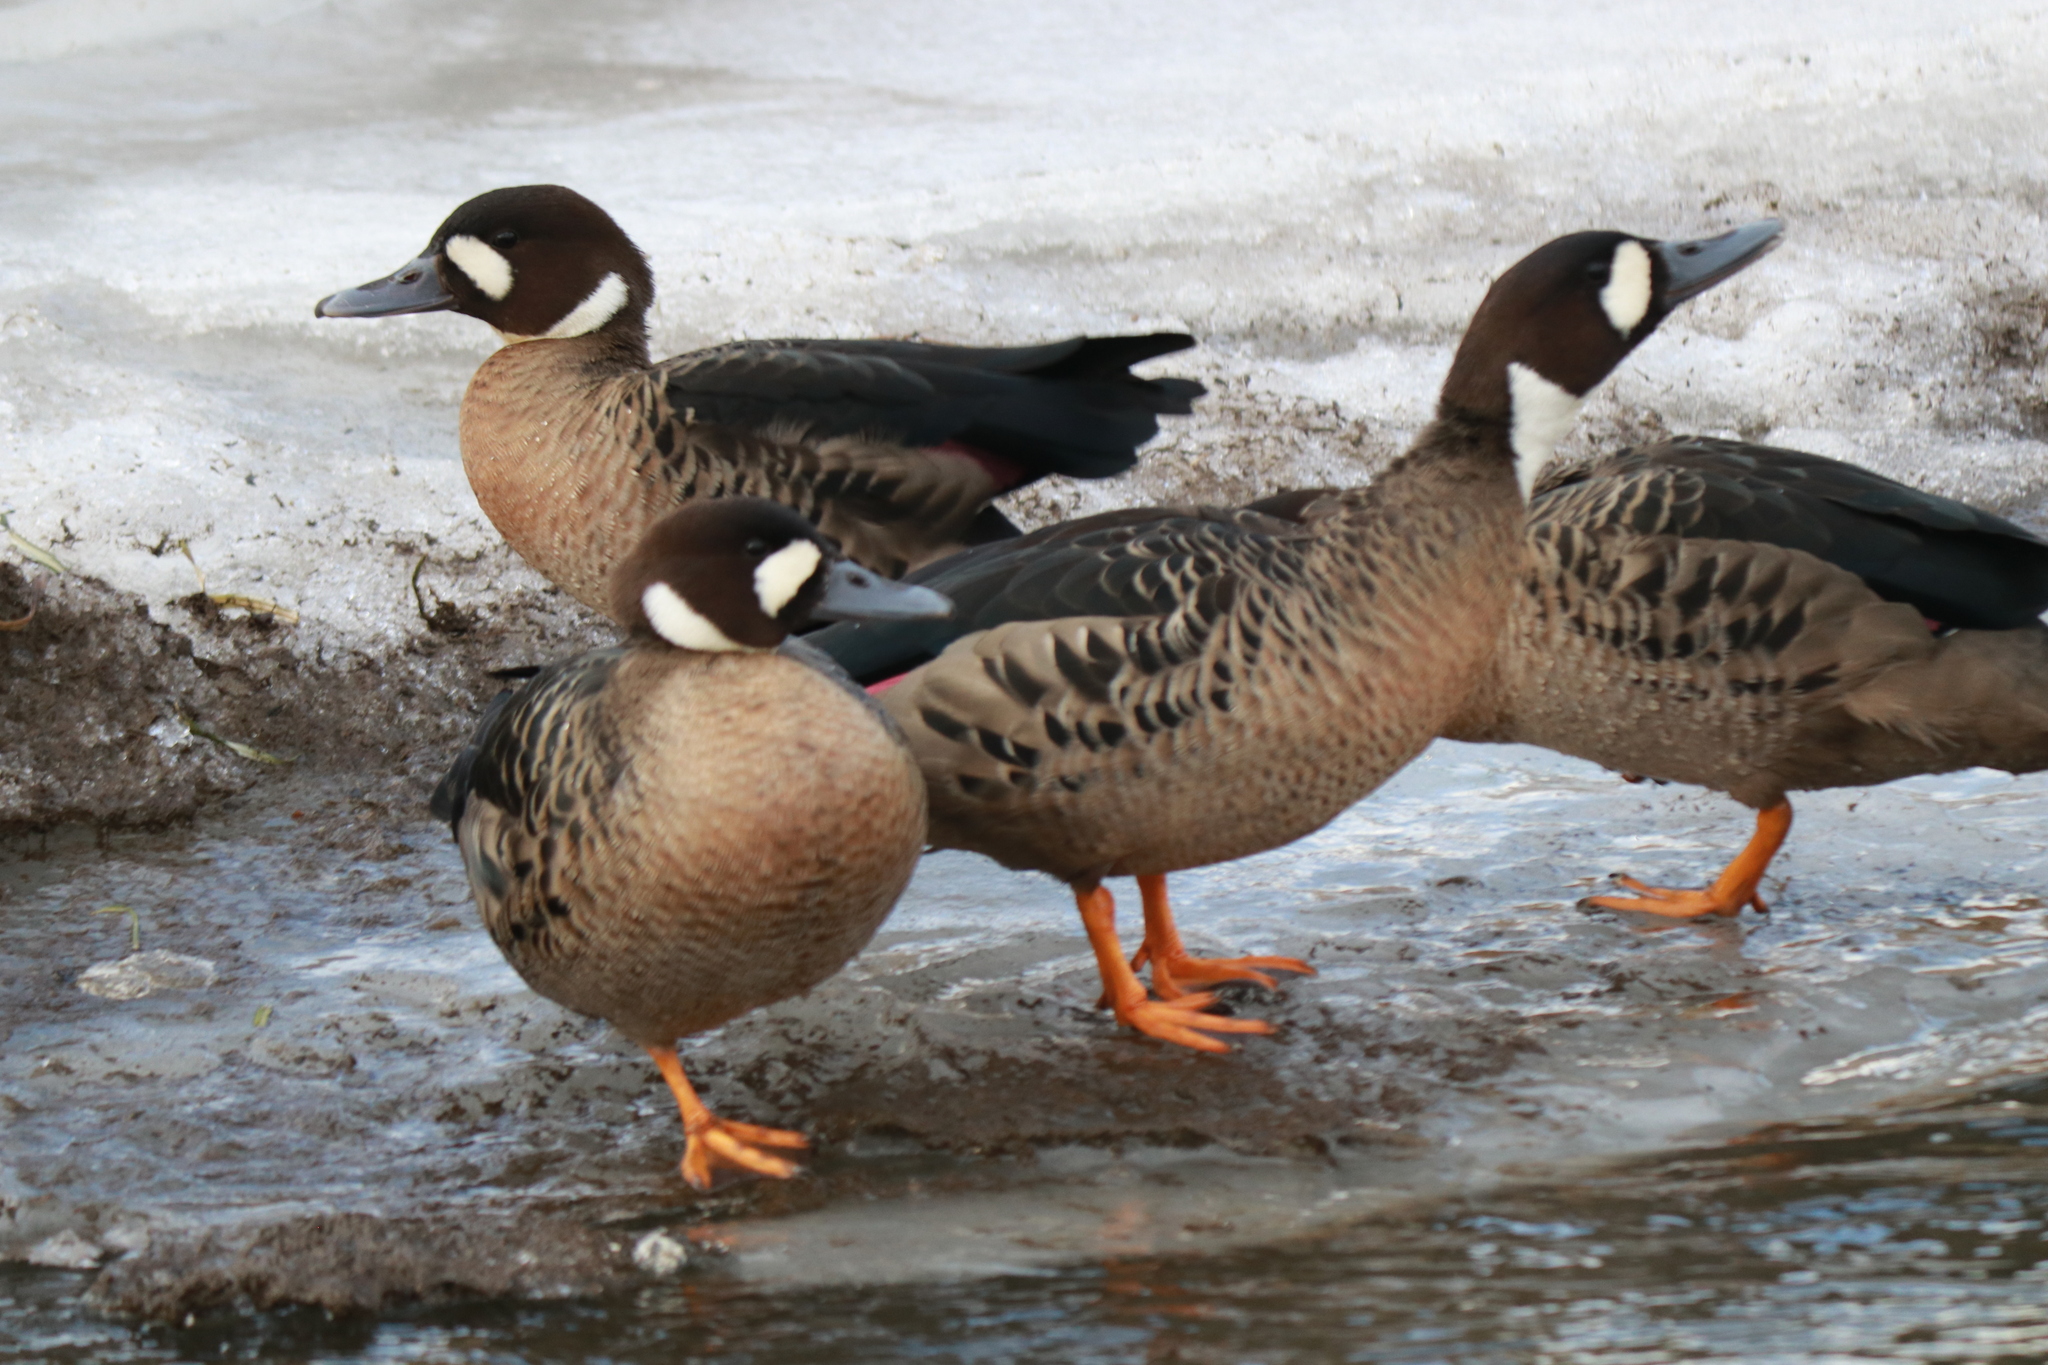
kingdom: Animalia
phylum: Chordata
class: Aves
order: Anseriformes
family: Anatidae
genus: Speculanas
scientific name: Speculanas specularis
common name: Bronze-winged duck
